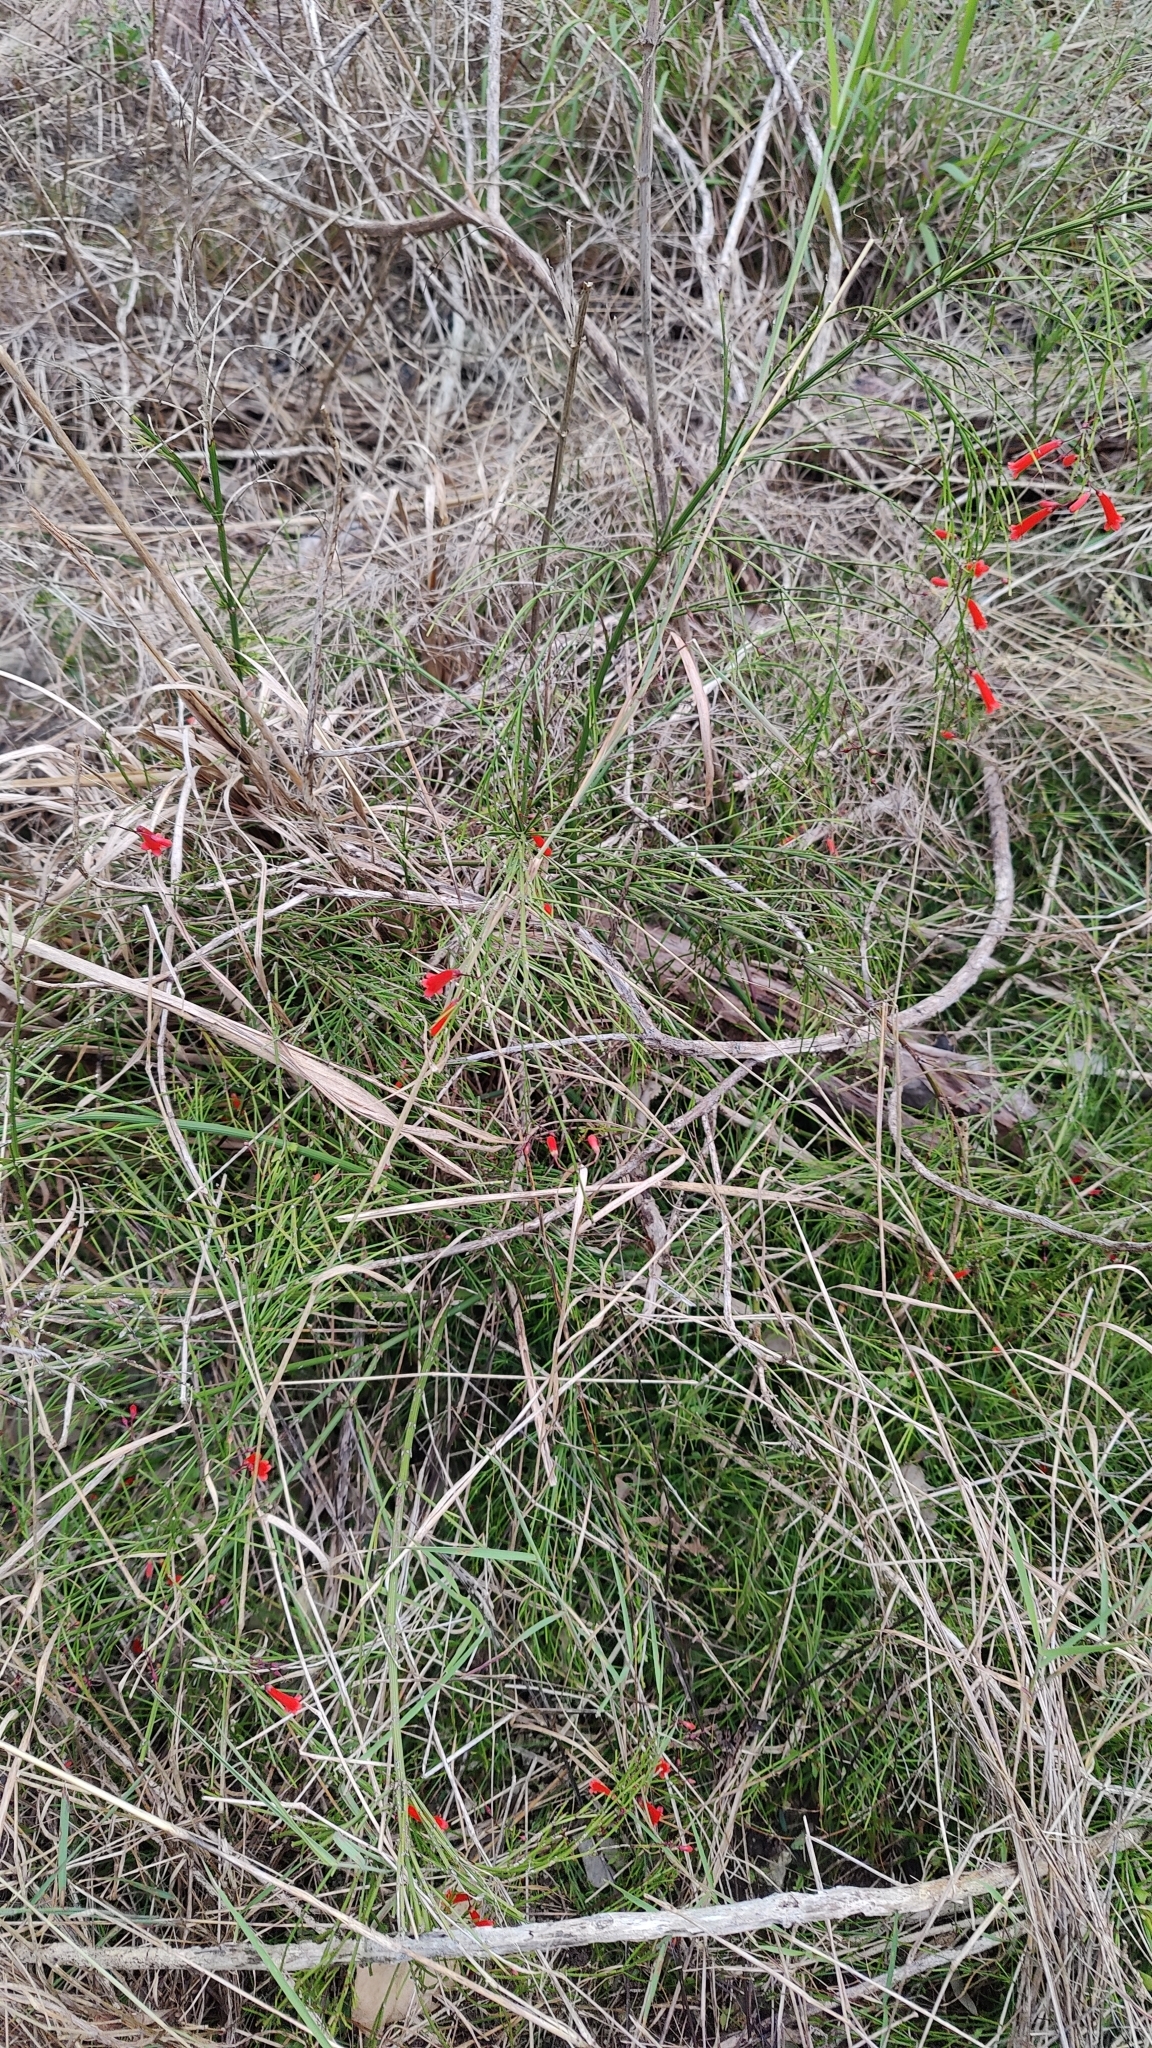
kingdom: Plantae
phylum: Tracheophyta
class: Magnoliopsida
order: Lamiales
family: Plantaginaceae
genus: Russelia
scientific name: Russelia equisetiformis
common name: Fountainbush
